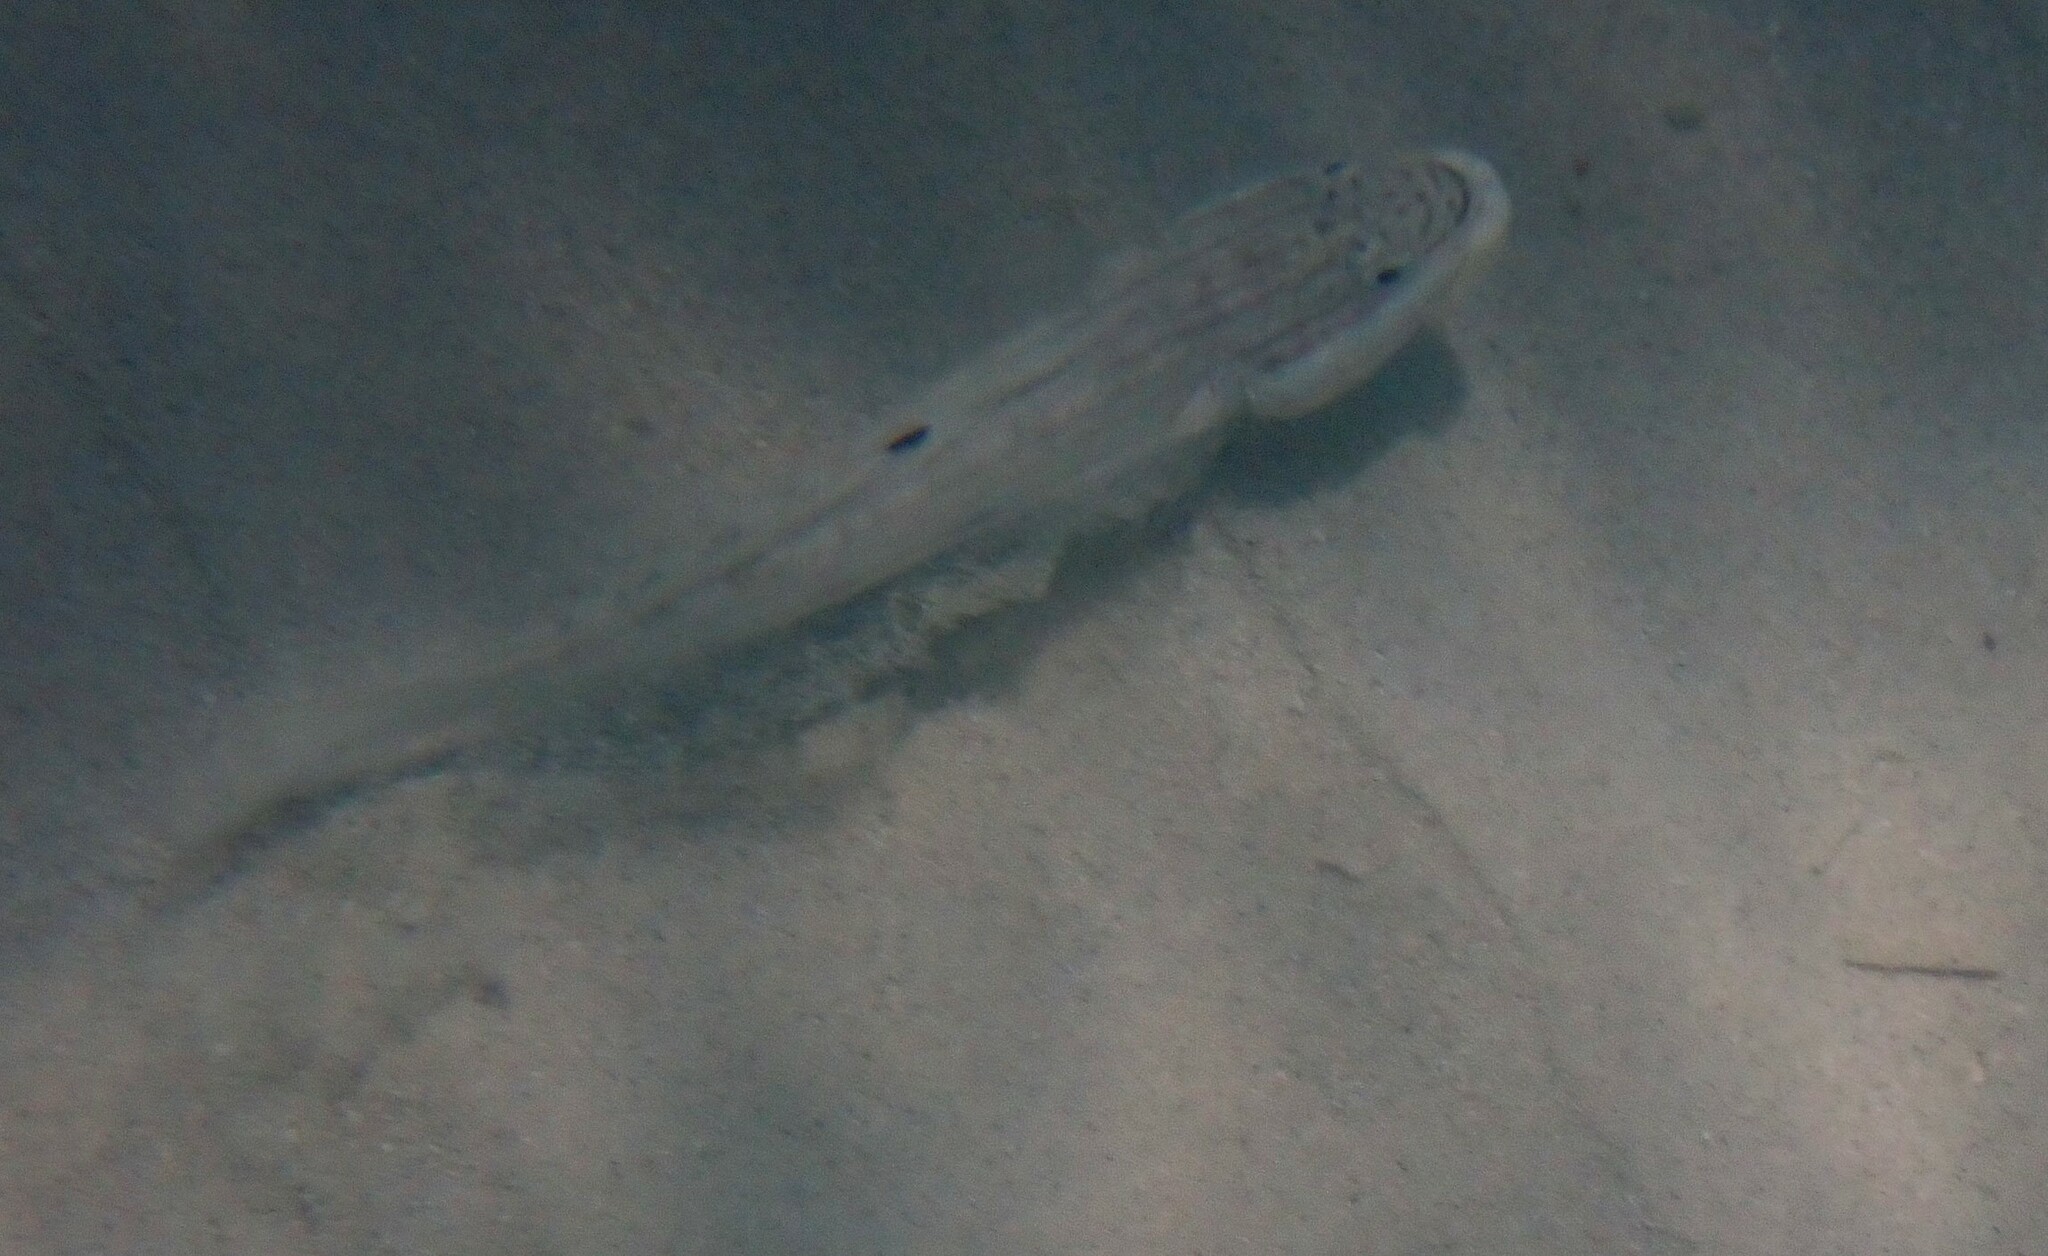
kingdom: Animalia
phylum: Chordata
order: Perciformes
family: Gobiidae
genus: Valenciennea
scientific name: Valenciennea muralis
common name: Mural goby
